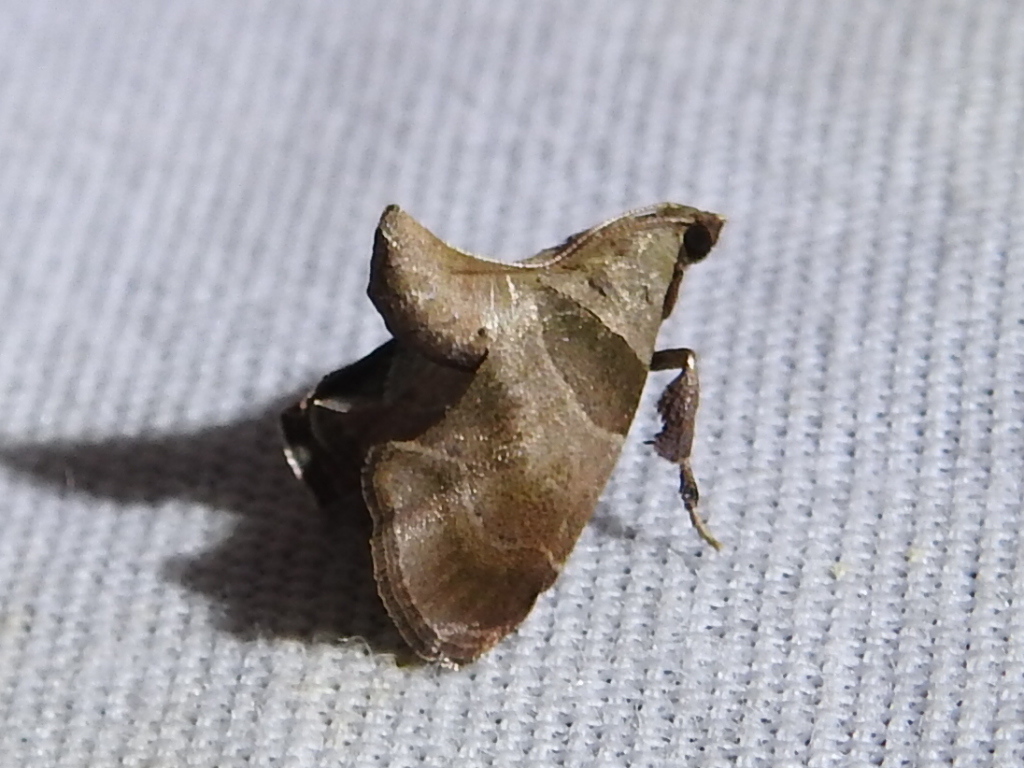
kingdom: Animalia
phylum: Arthropoda
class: Insecta
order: Lepidoptera
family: Pyralidae
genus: Tosale
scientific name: Tosale oviplagalis
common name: Dimorphic tosale moth
